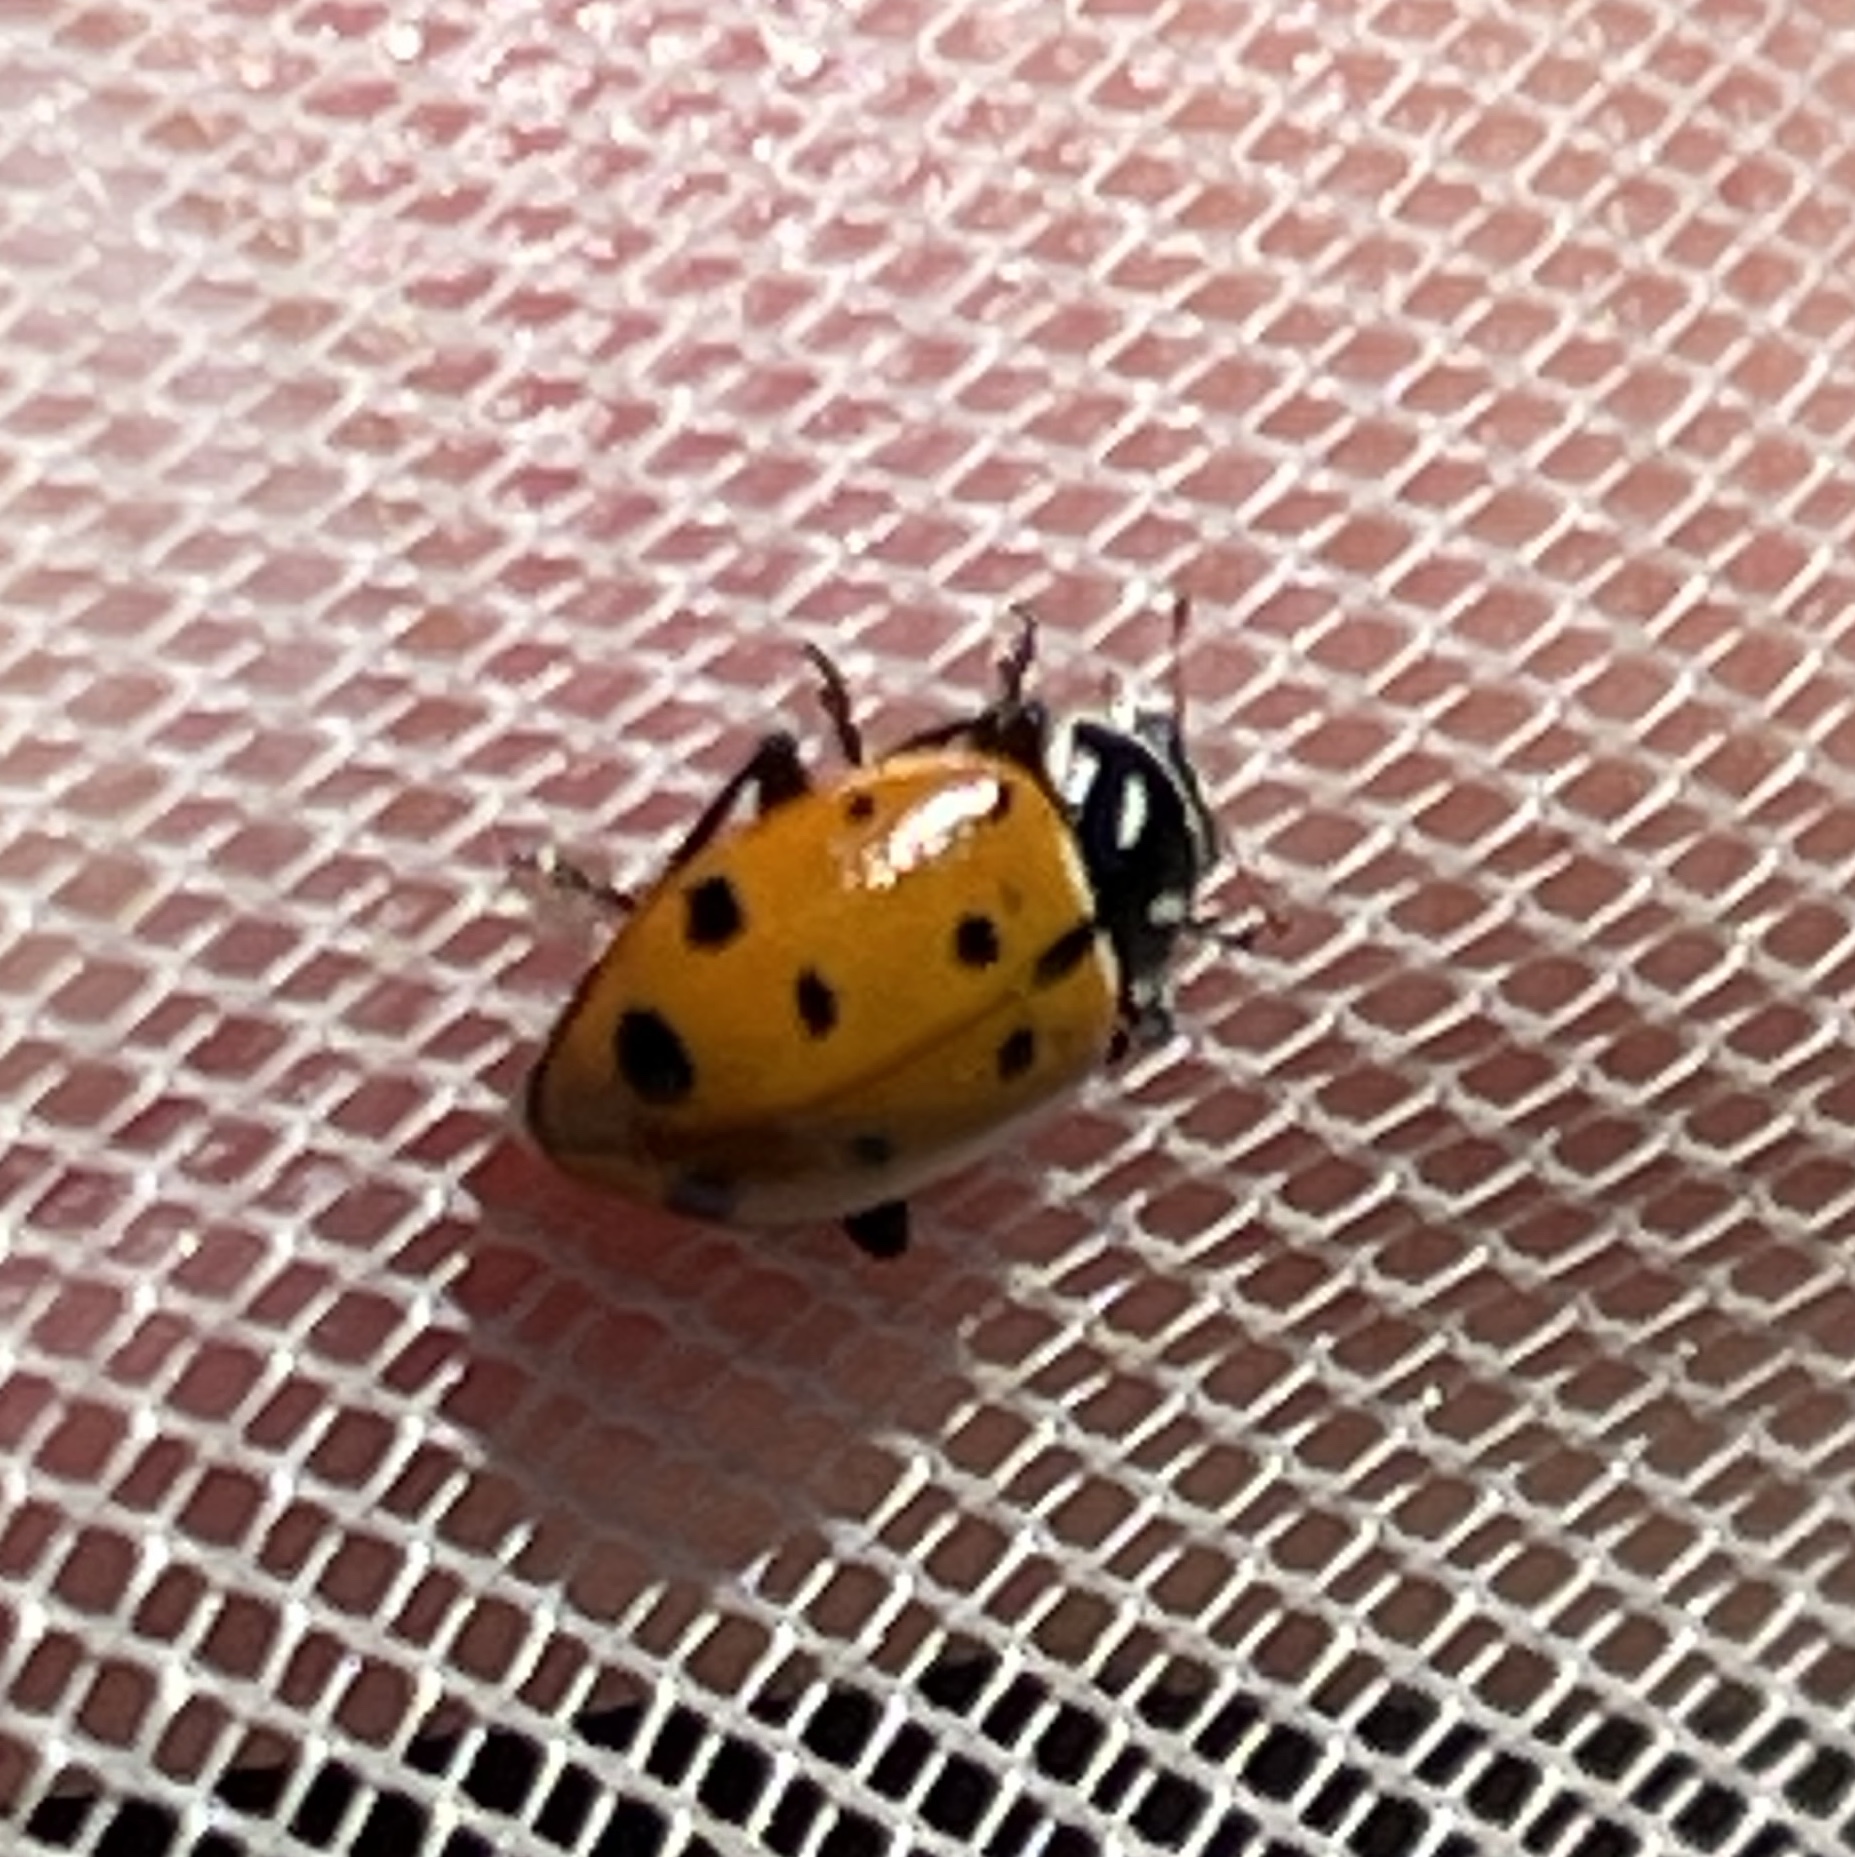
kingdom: Animalia
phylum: Arthropoda
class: Insecta
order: Coleoptera
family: Coccinellidae
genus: Hippodamia
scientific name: Hippodamia convergens
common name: Convergent lady beetle
